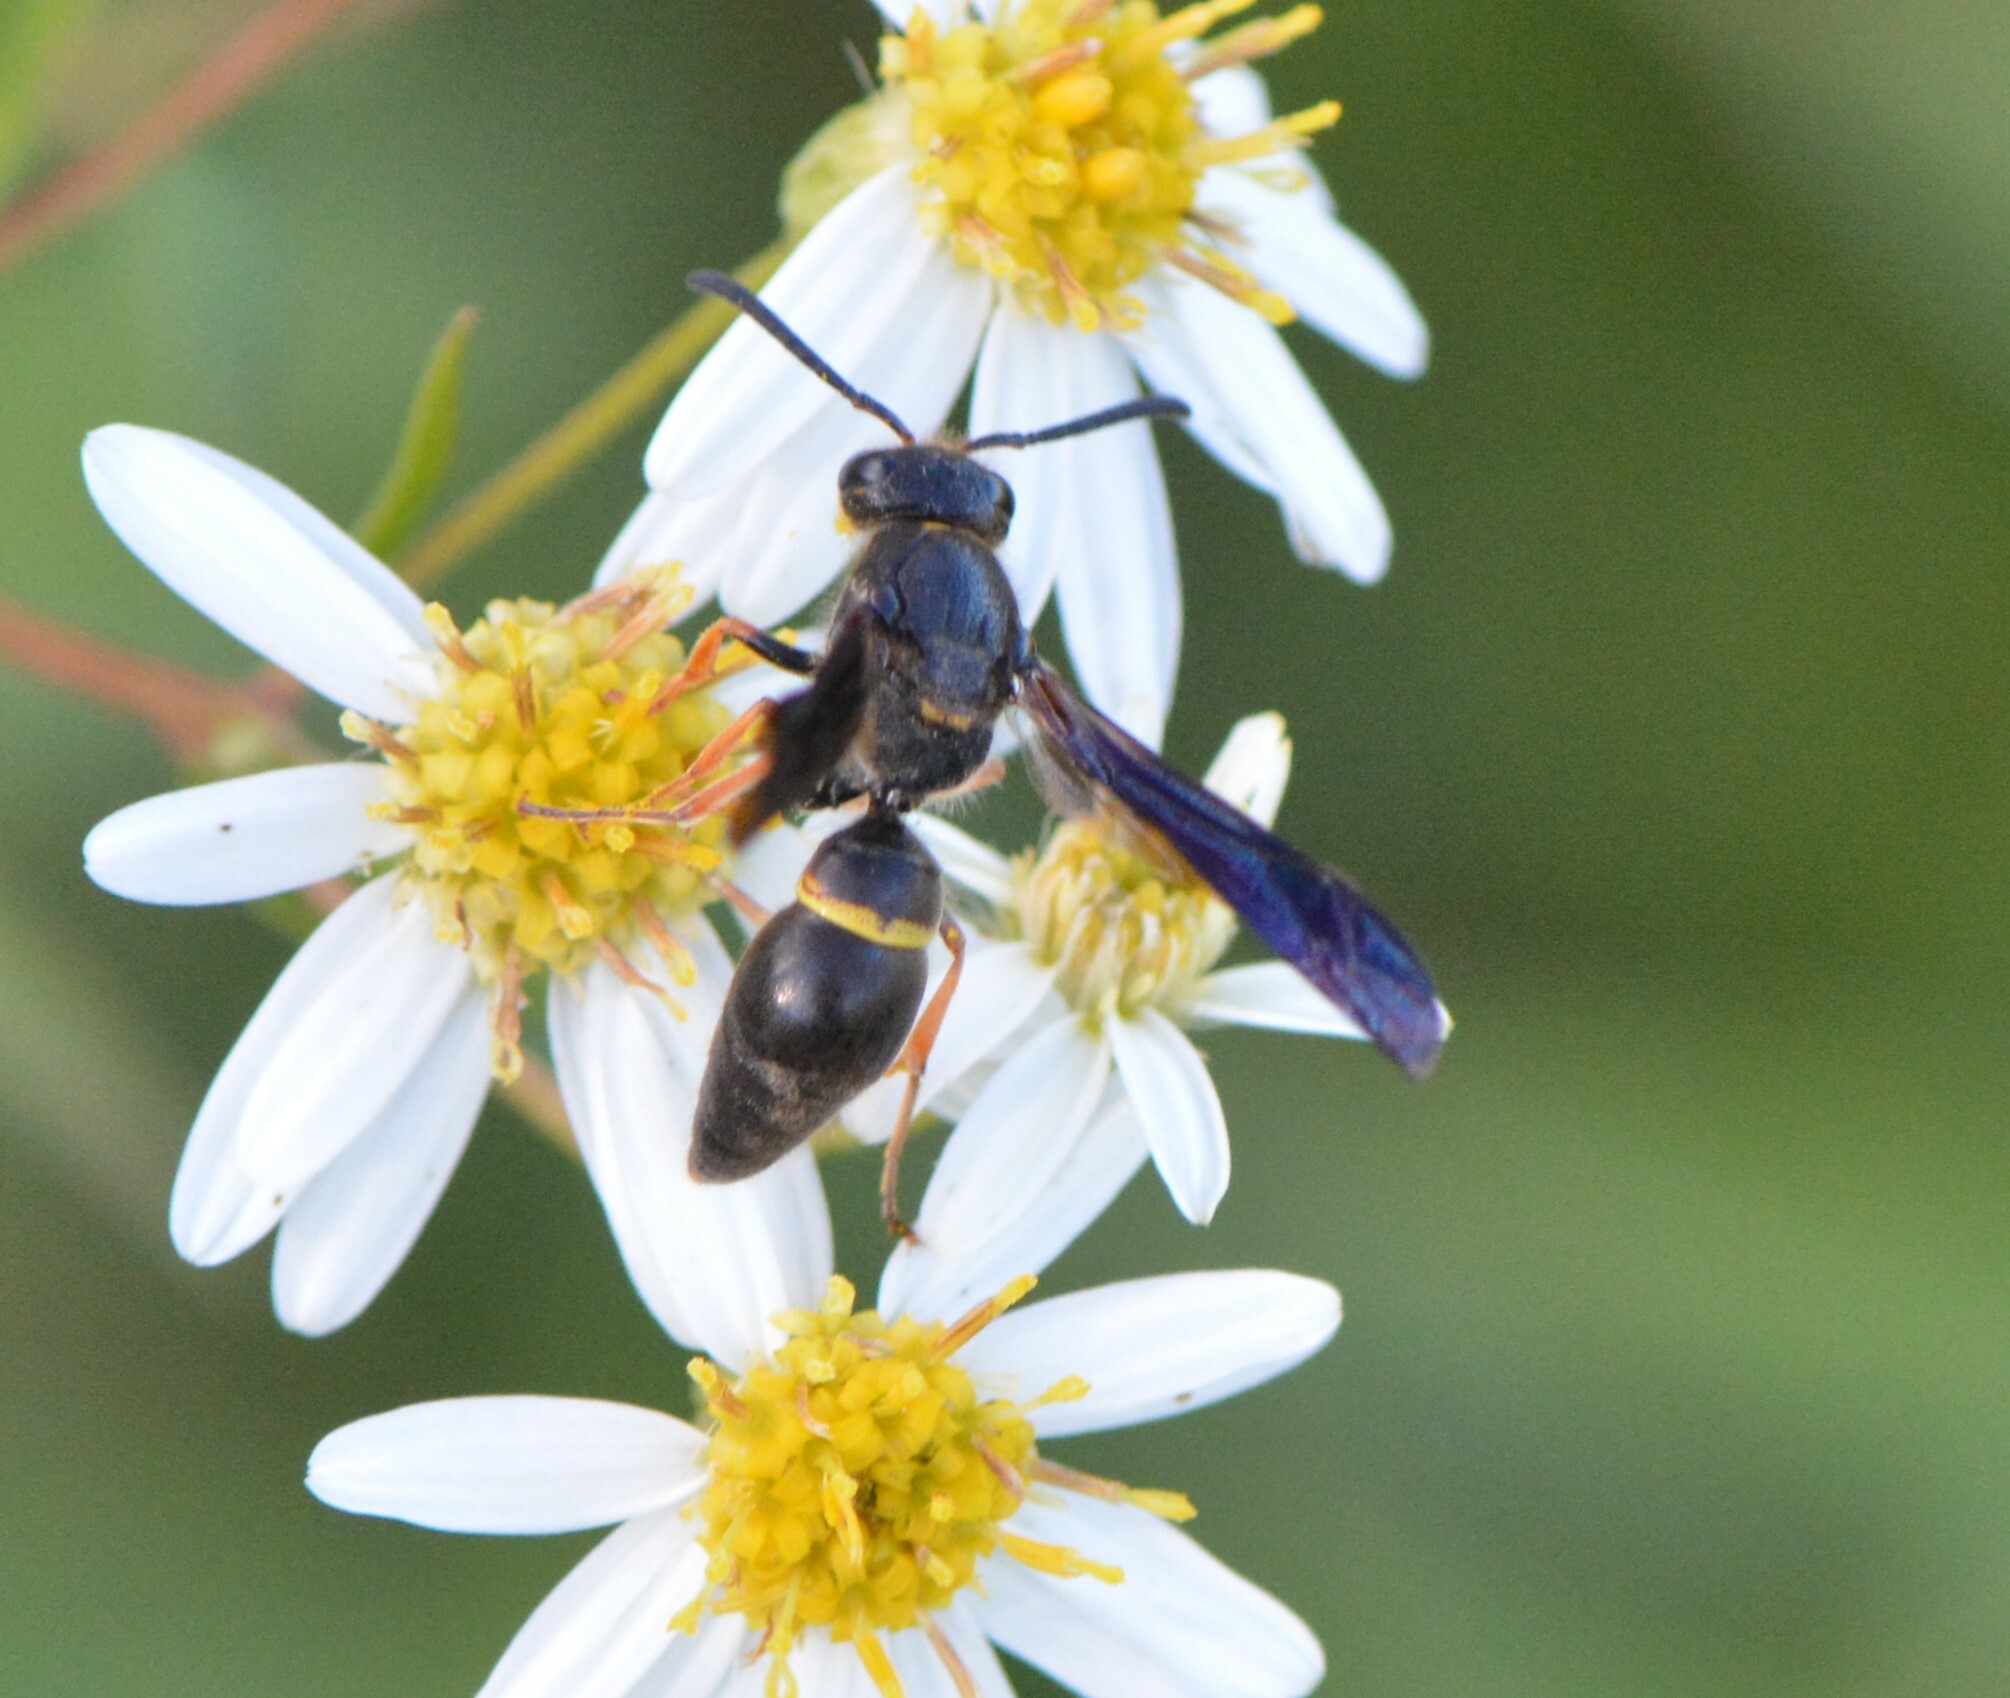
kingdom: Animalia
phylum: Arthropoda
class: Insecta
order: Hymenoptera
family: Vespidae
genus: Ancistrocerus
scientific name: Ancistrocerus unifasciatus
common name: One-banded mason wasp
